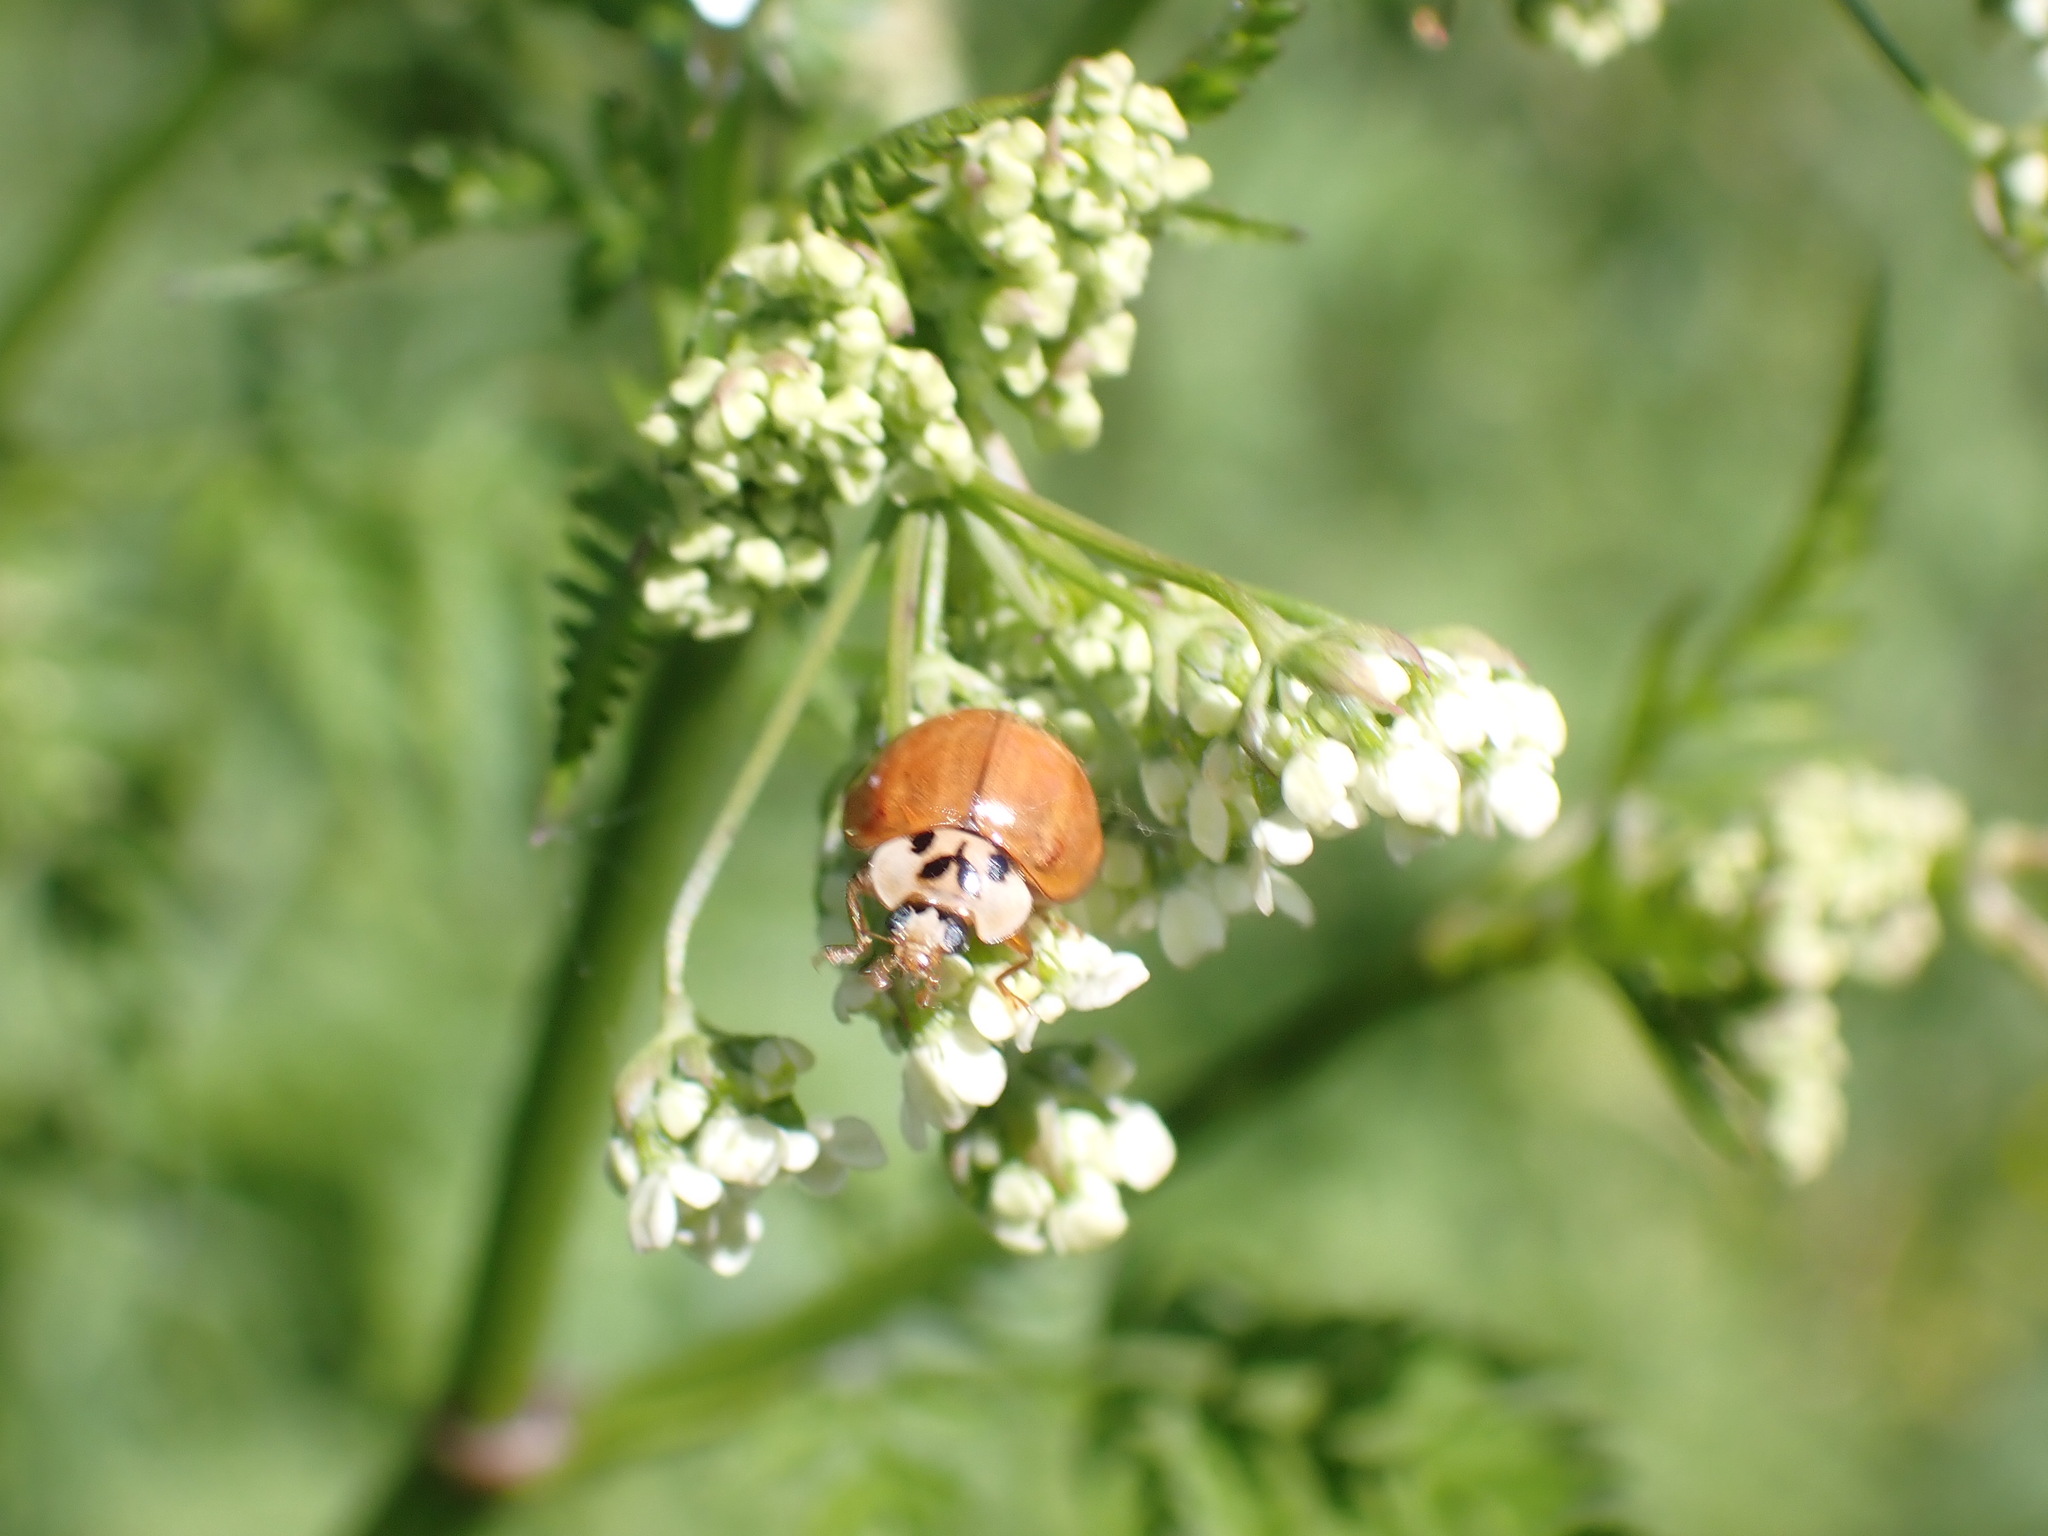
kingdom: Animalia
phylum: Arthropoda
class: Insecta
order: Coleoptera
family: Coccinellidae
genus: Harmonia
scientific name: Harmonia axyridis
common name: Harlequin ladybird
